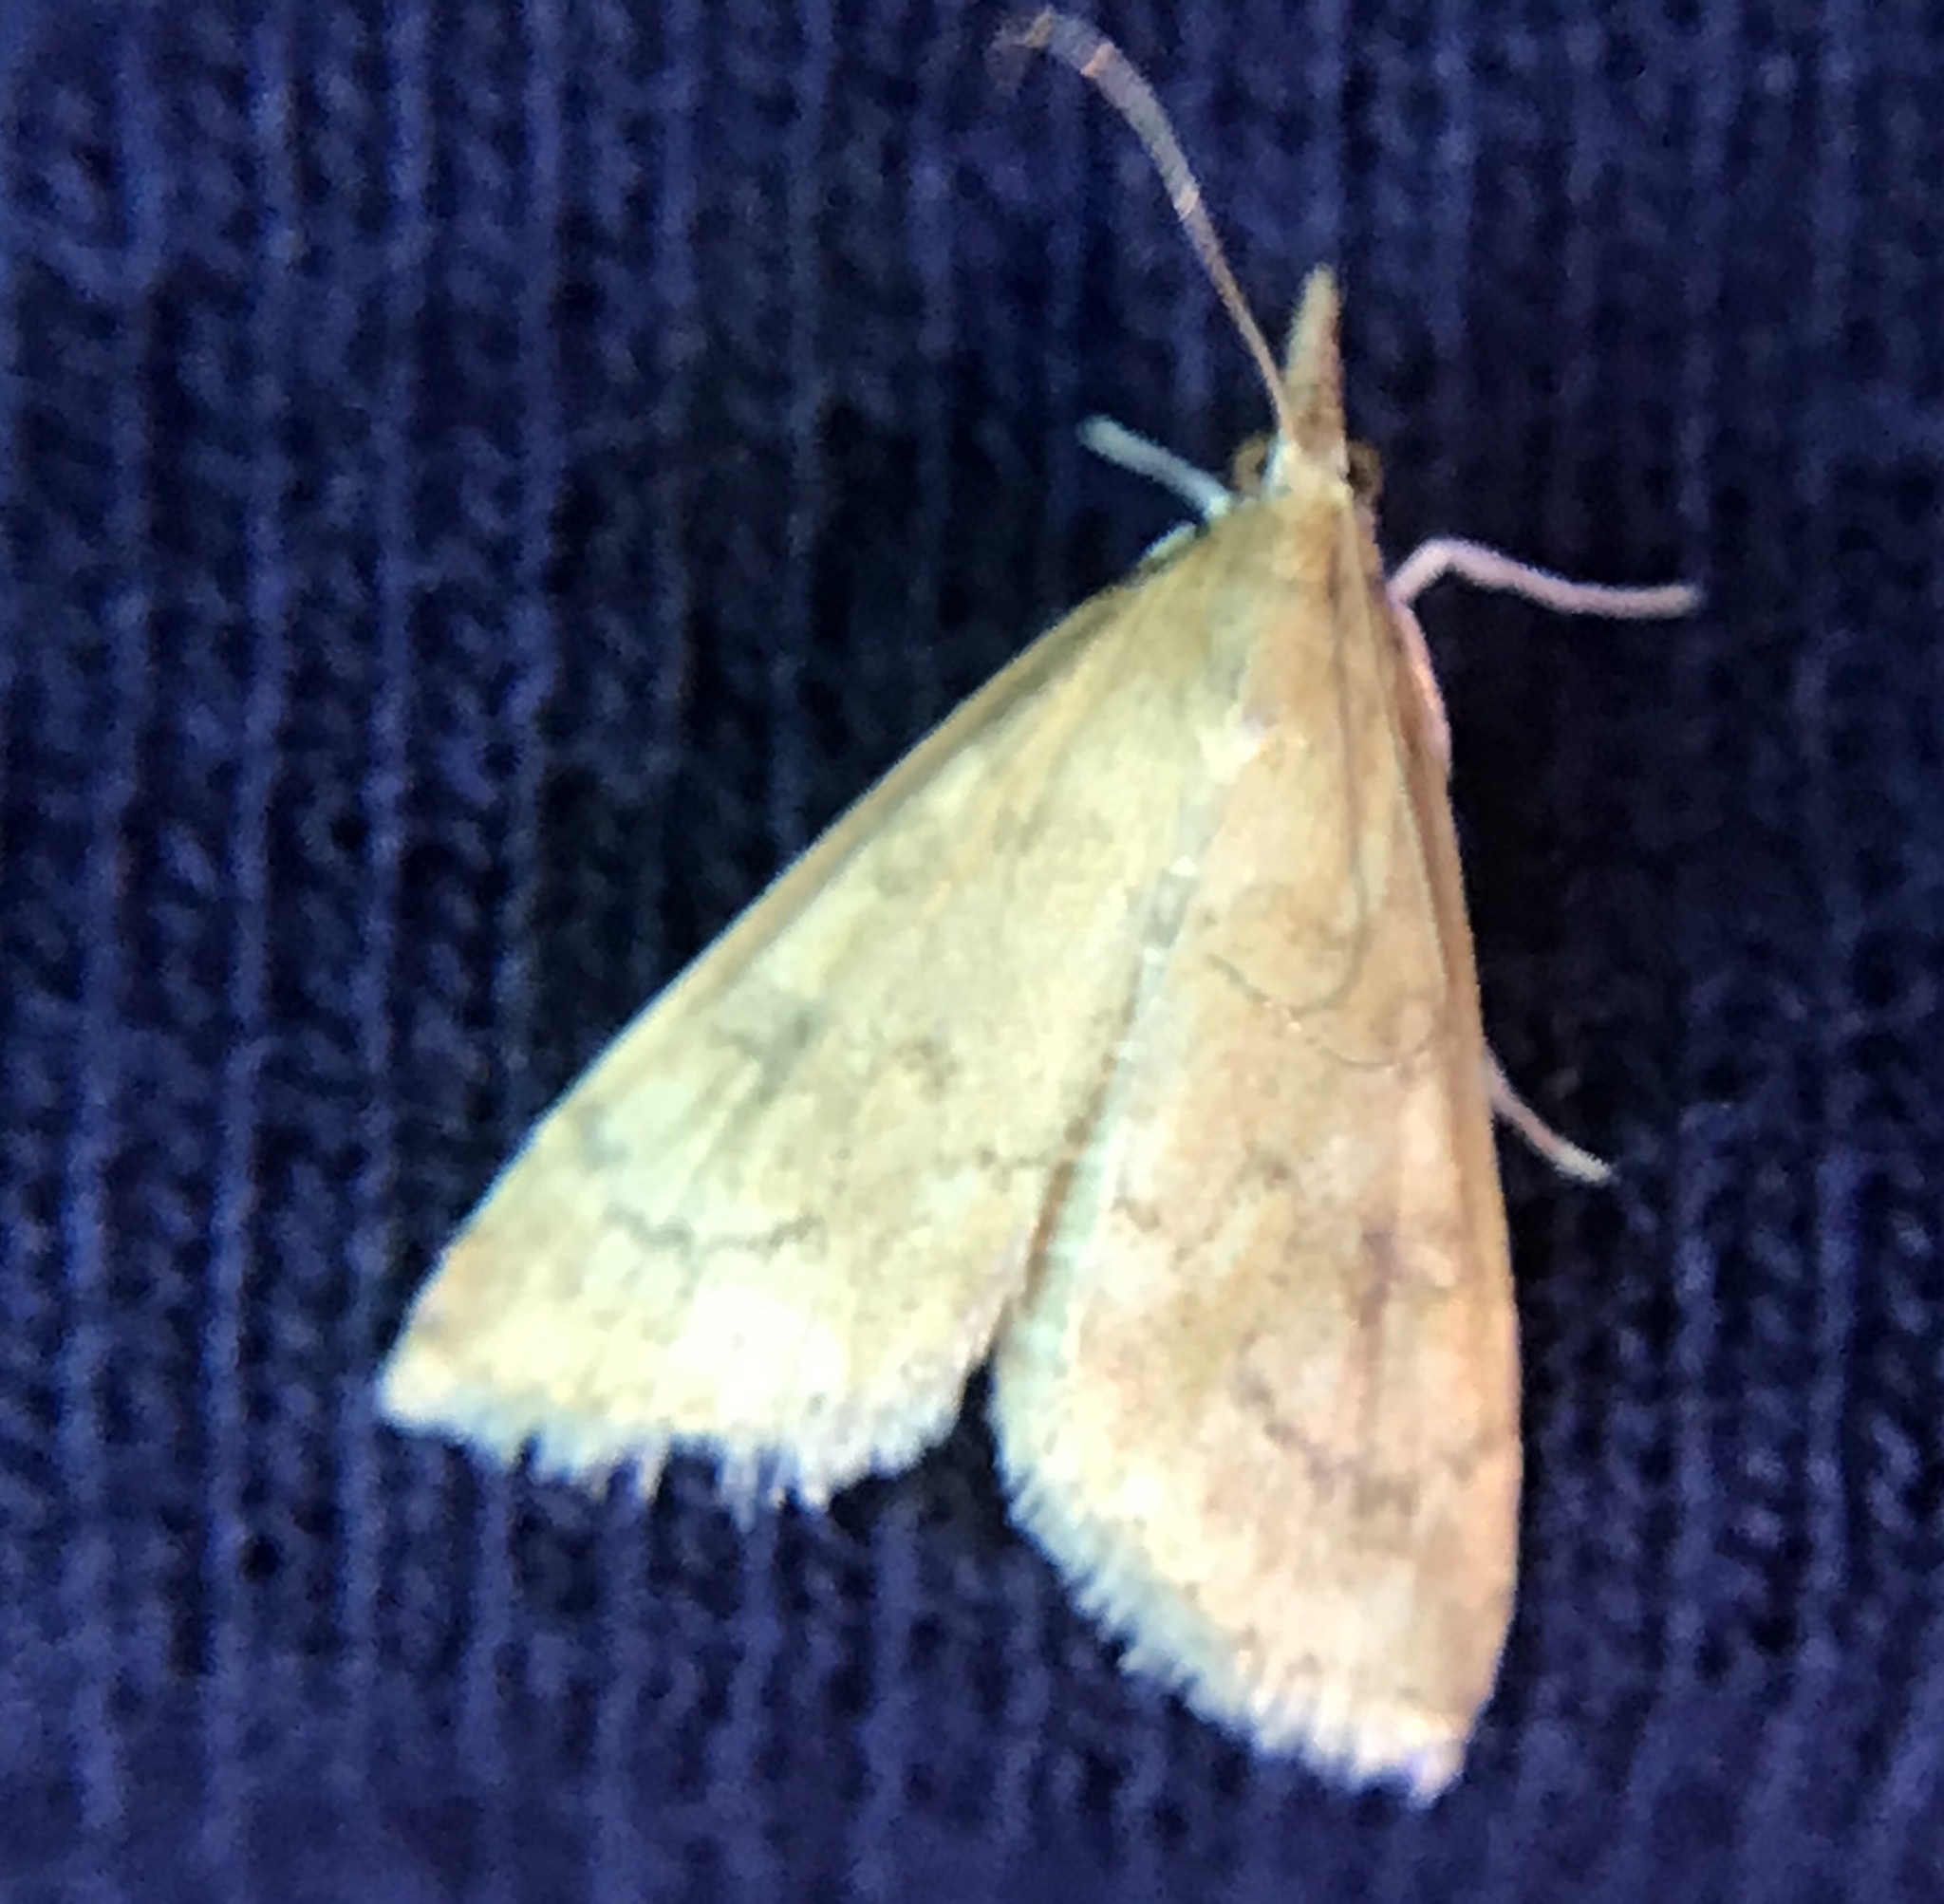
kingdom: Animalia
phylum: Arthropoda
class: Insecta
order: Lepidoptera
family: Crambidae
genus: Udea
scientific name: Udea rubigalis
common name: Celery leaftier moth
